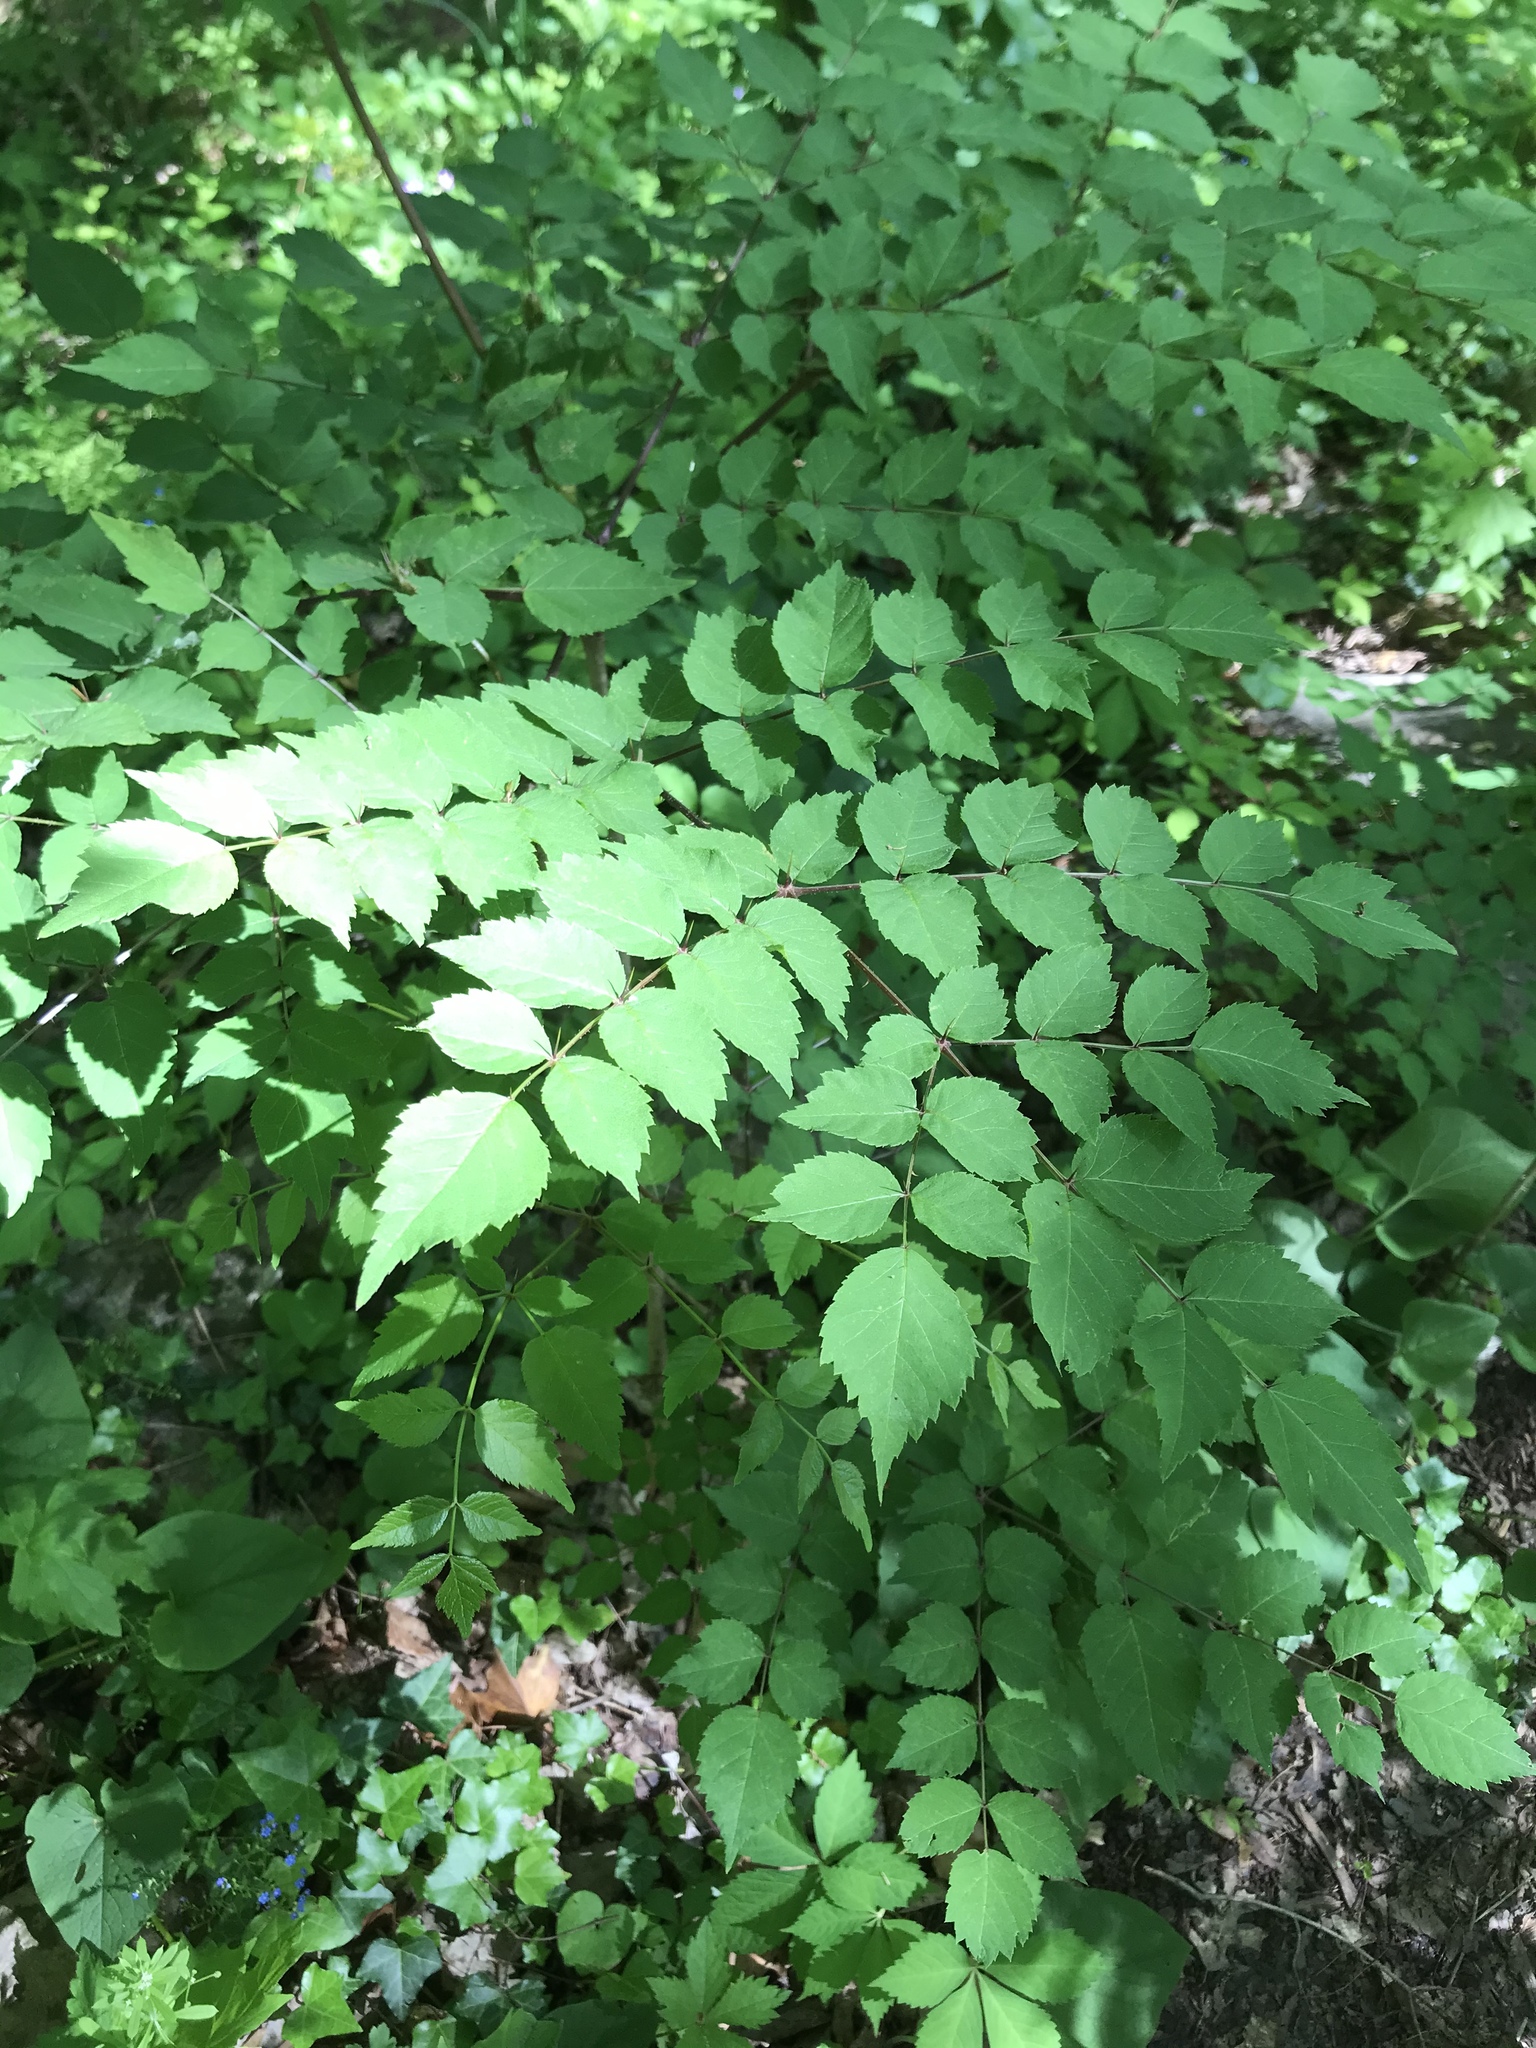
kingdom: Plantae
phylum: Tracheophyta
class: Magnoliopsida
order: Apiales
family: Araliaceae
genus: Aralia
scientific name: Aralia spinosa
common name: Hercules'-club
